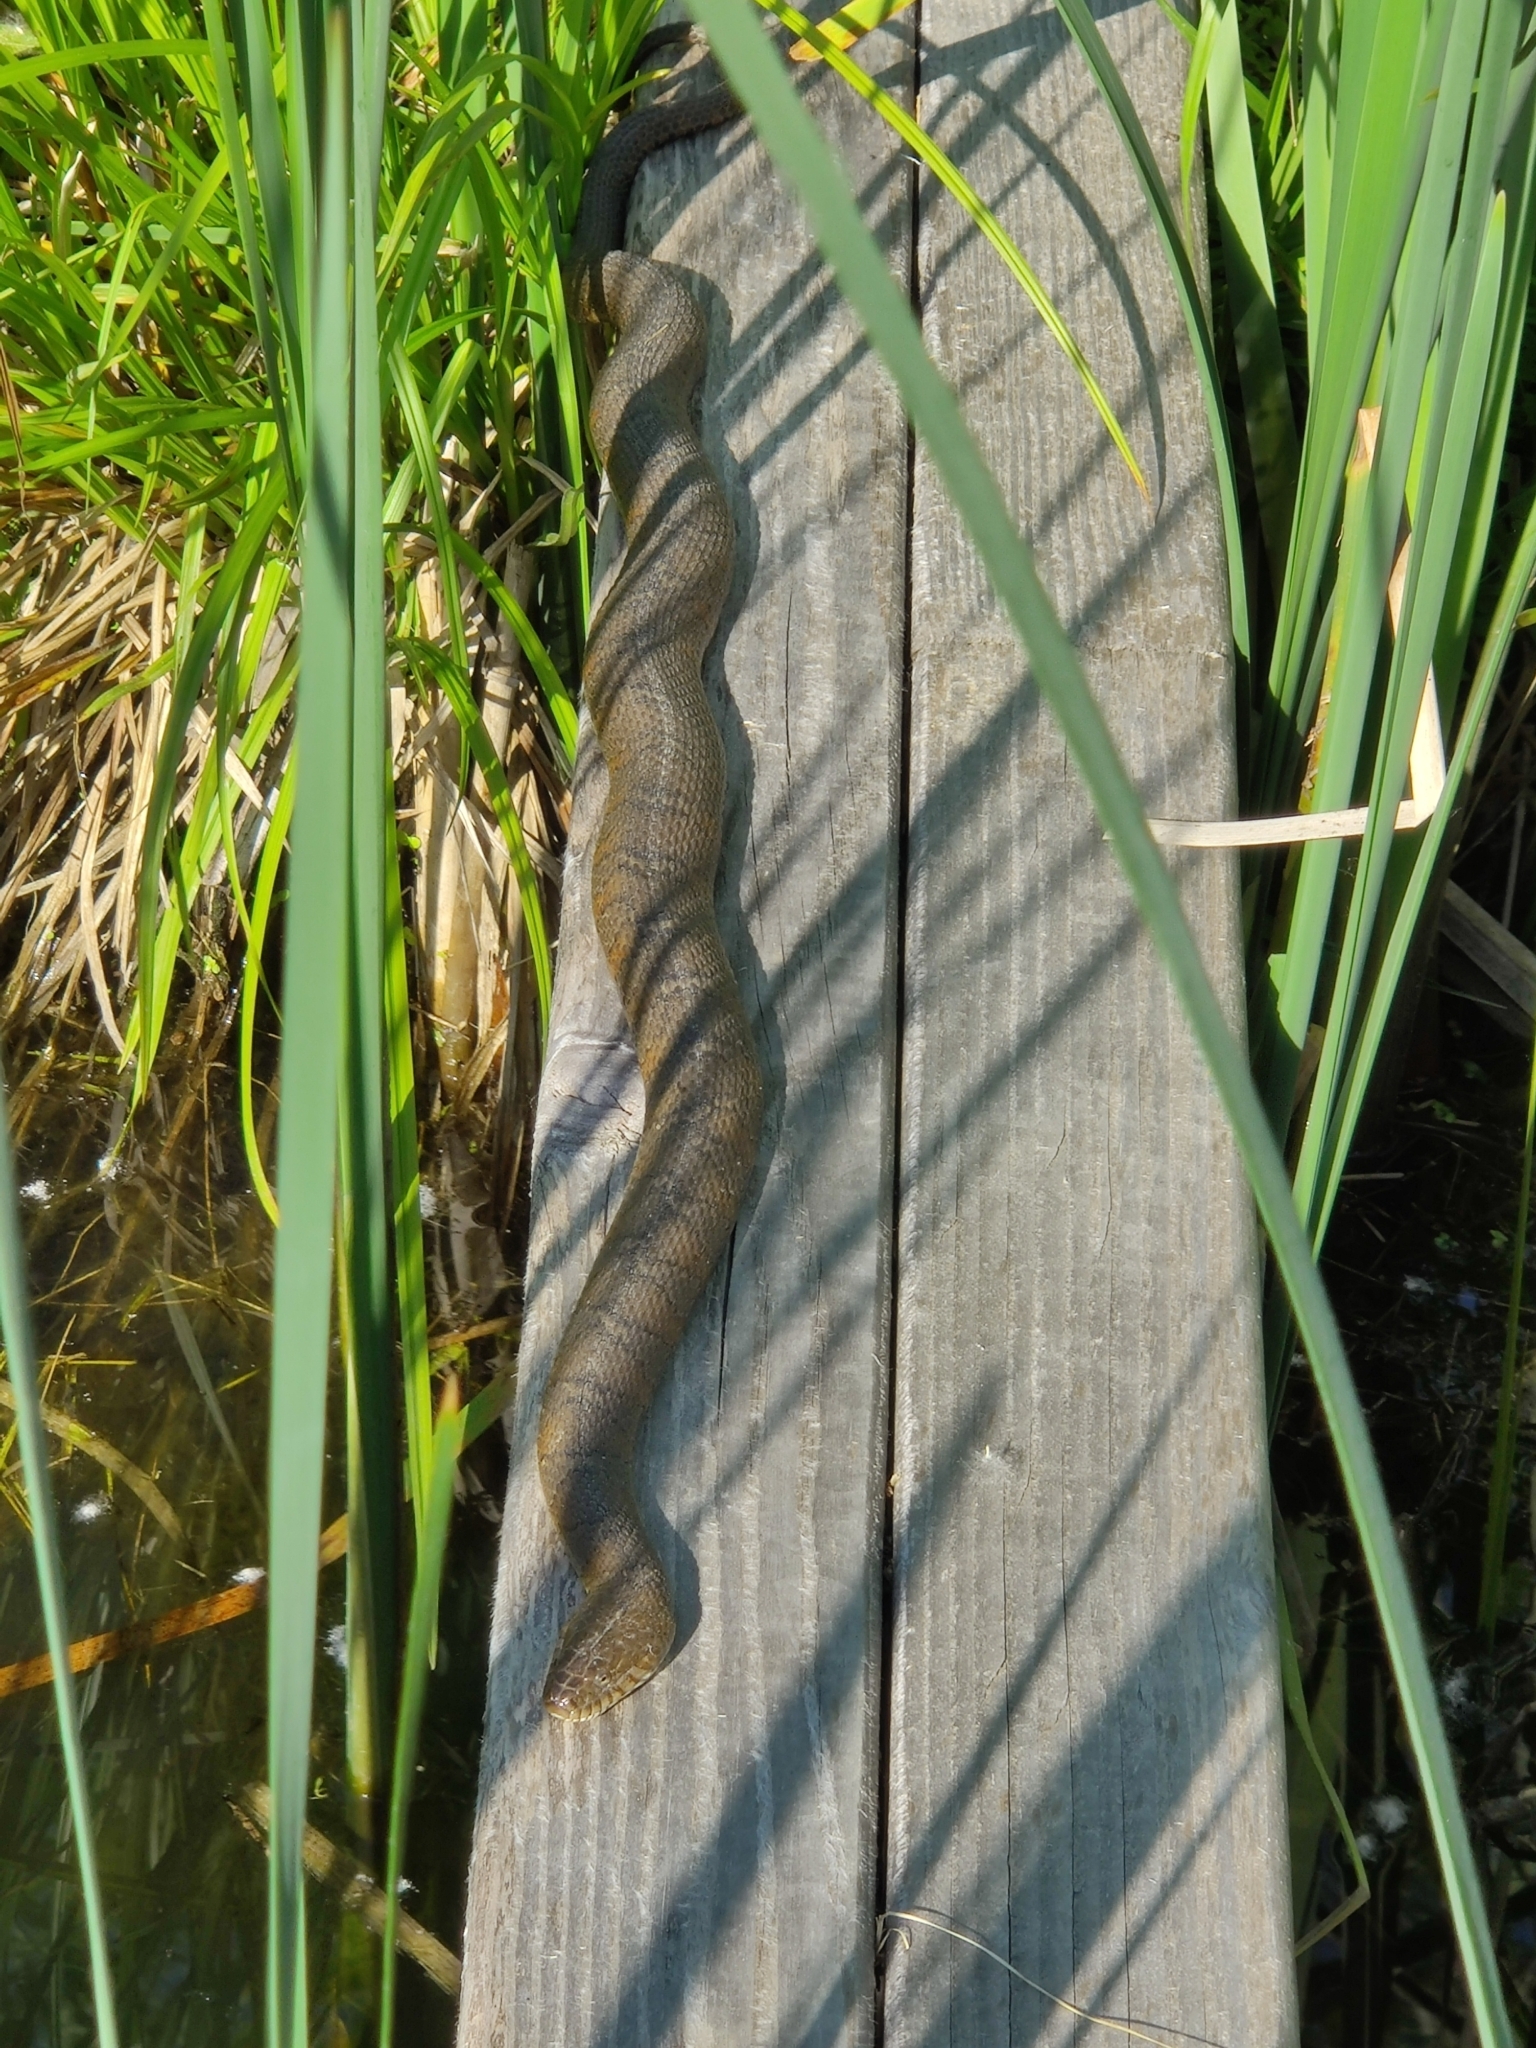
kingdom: Animalia
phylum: Chordata
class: Squamata
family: Colubridae
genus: Nerodia
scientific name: Nerodia sipedon
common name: Northern water snake
